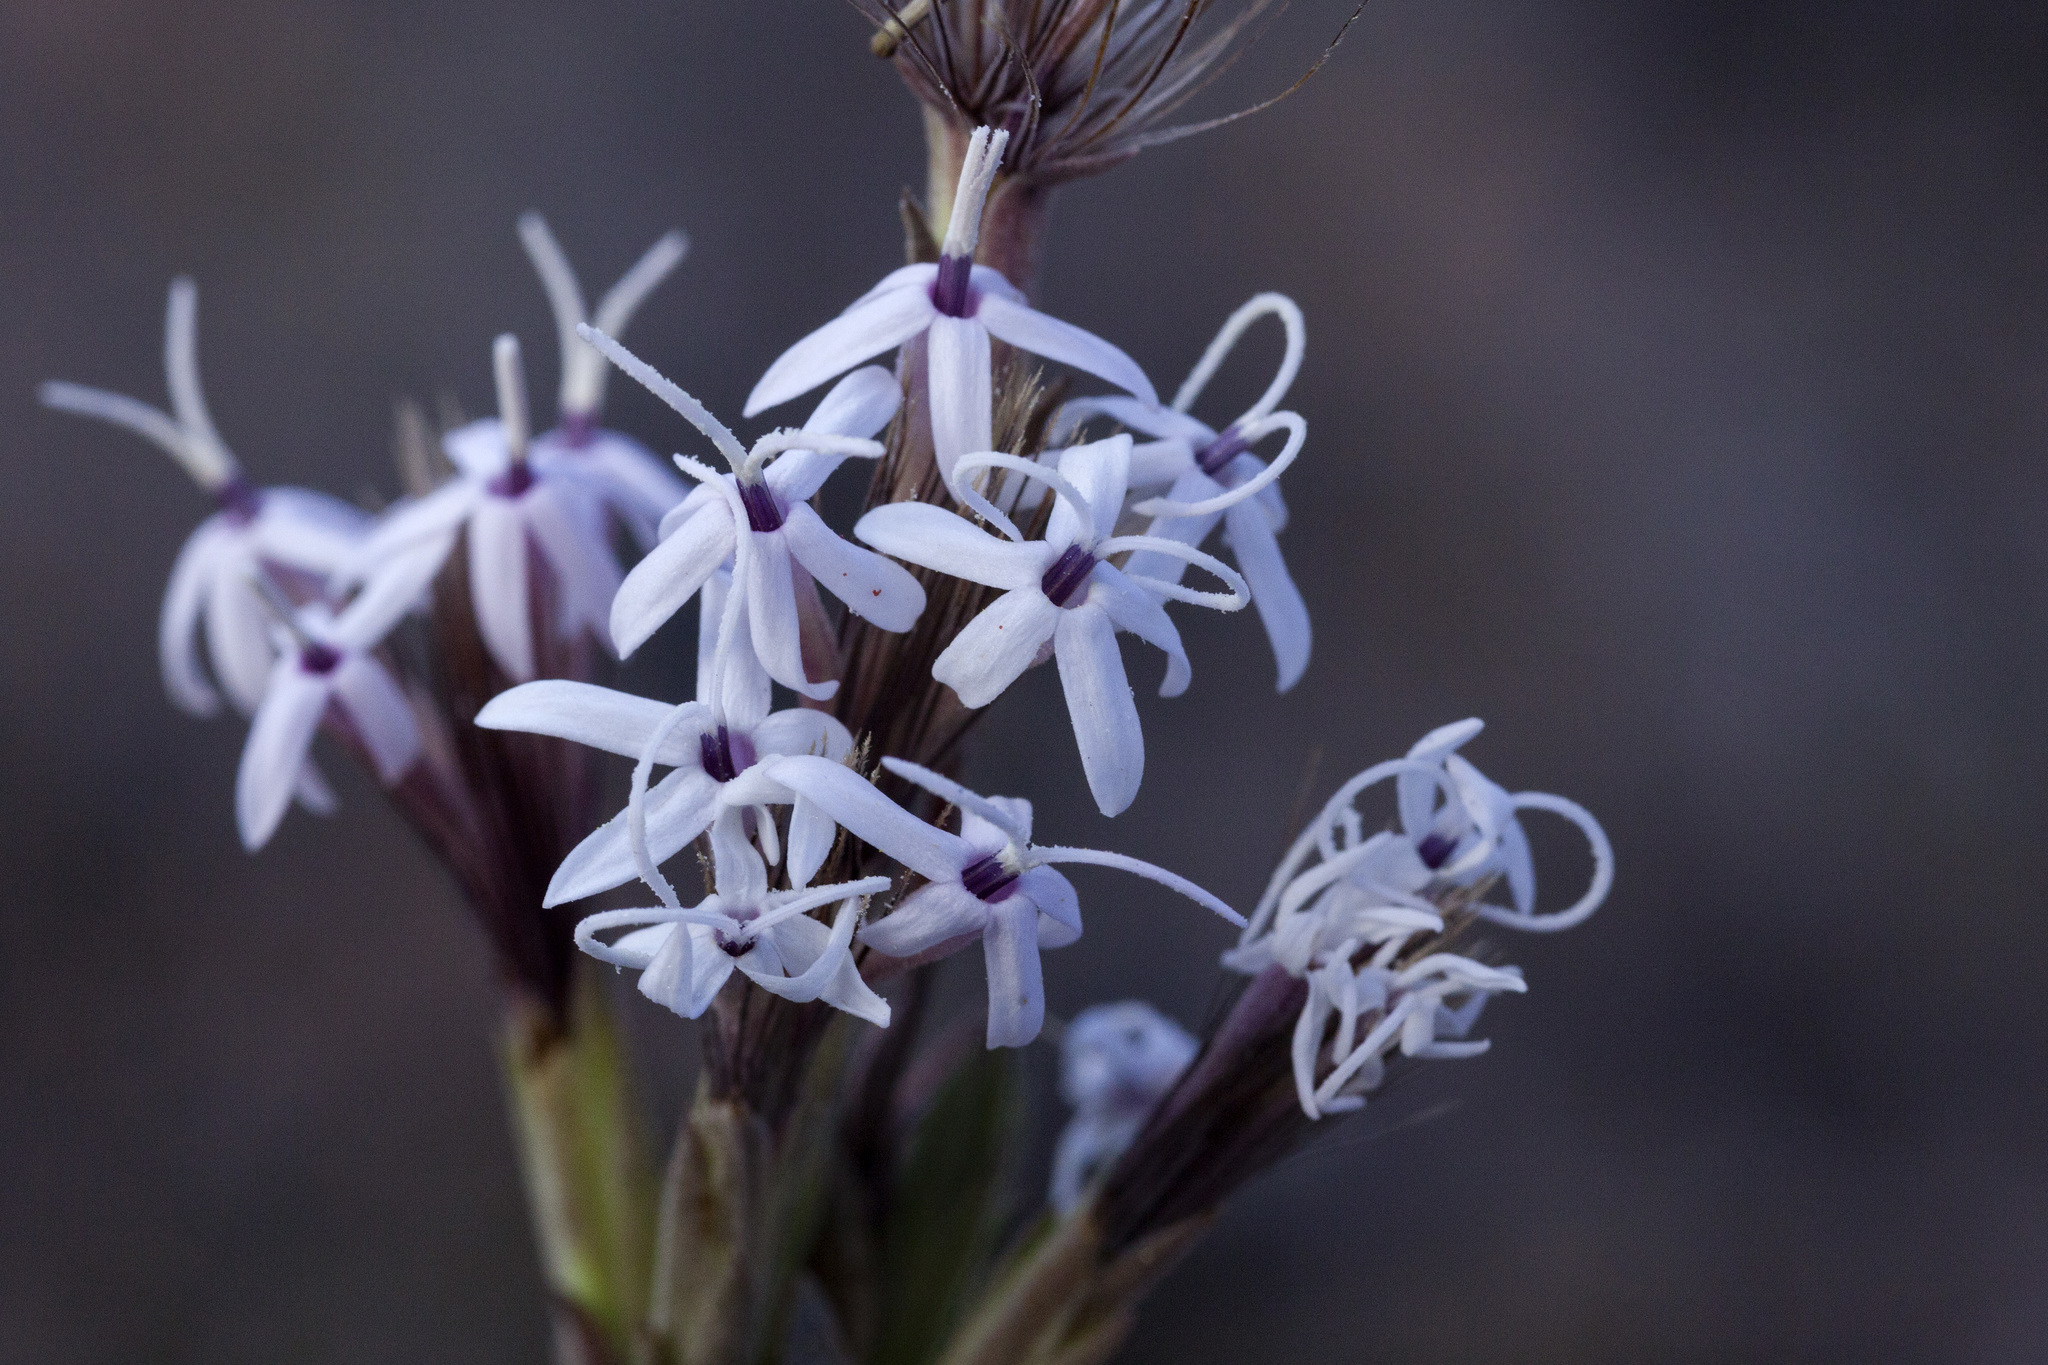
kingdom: Plantae
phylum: Tracheophyta
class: Magnoliopsida
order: Asterales
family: Asteraceae
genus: Carphochaete
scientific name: Carphochaete bigelovii
